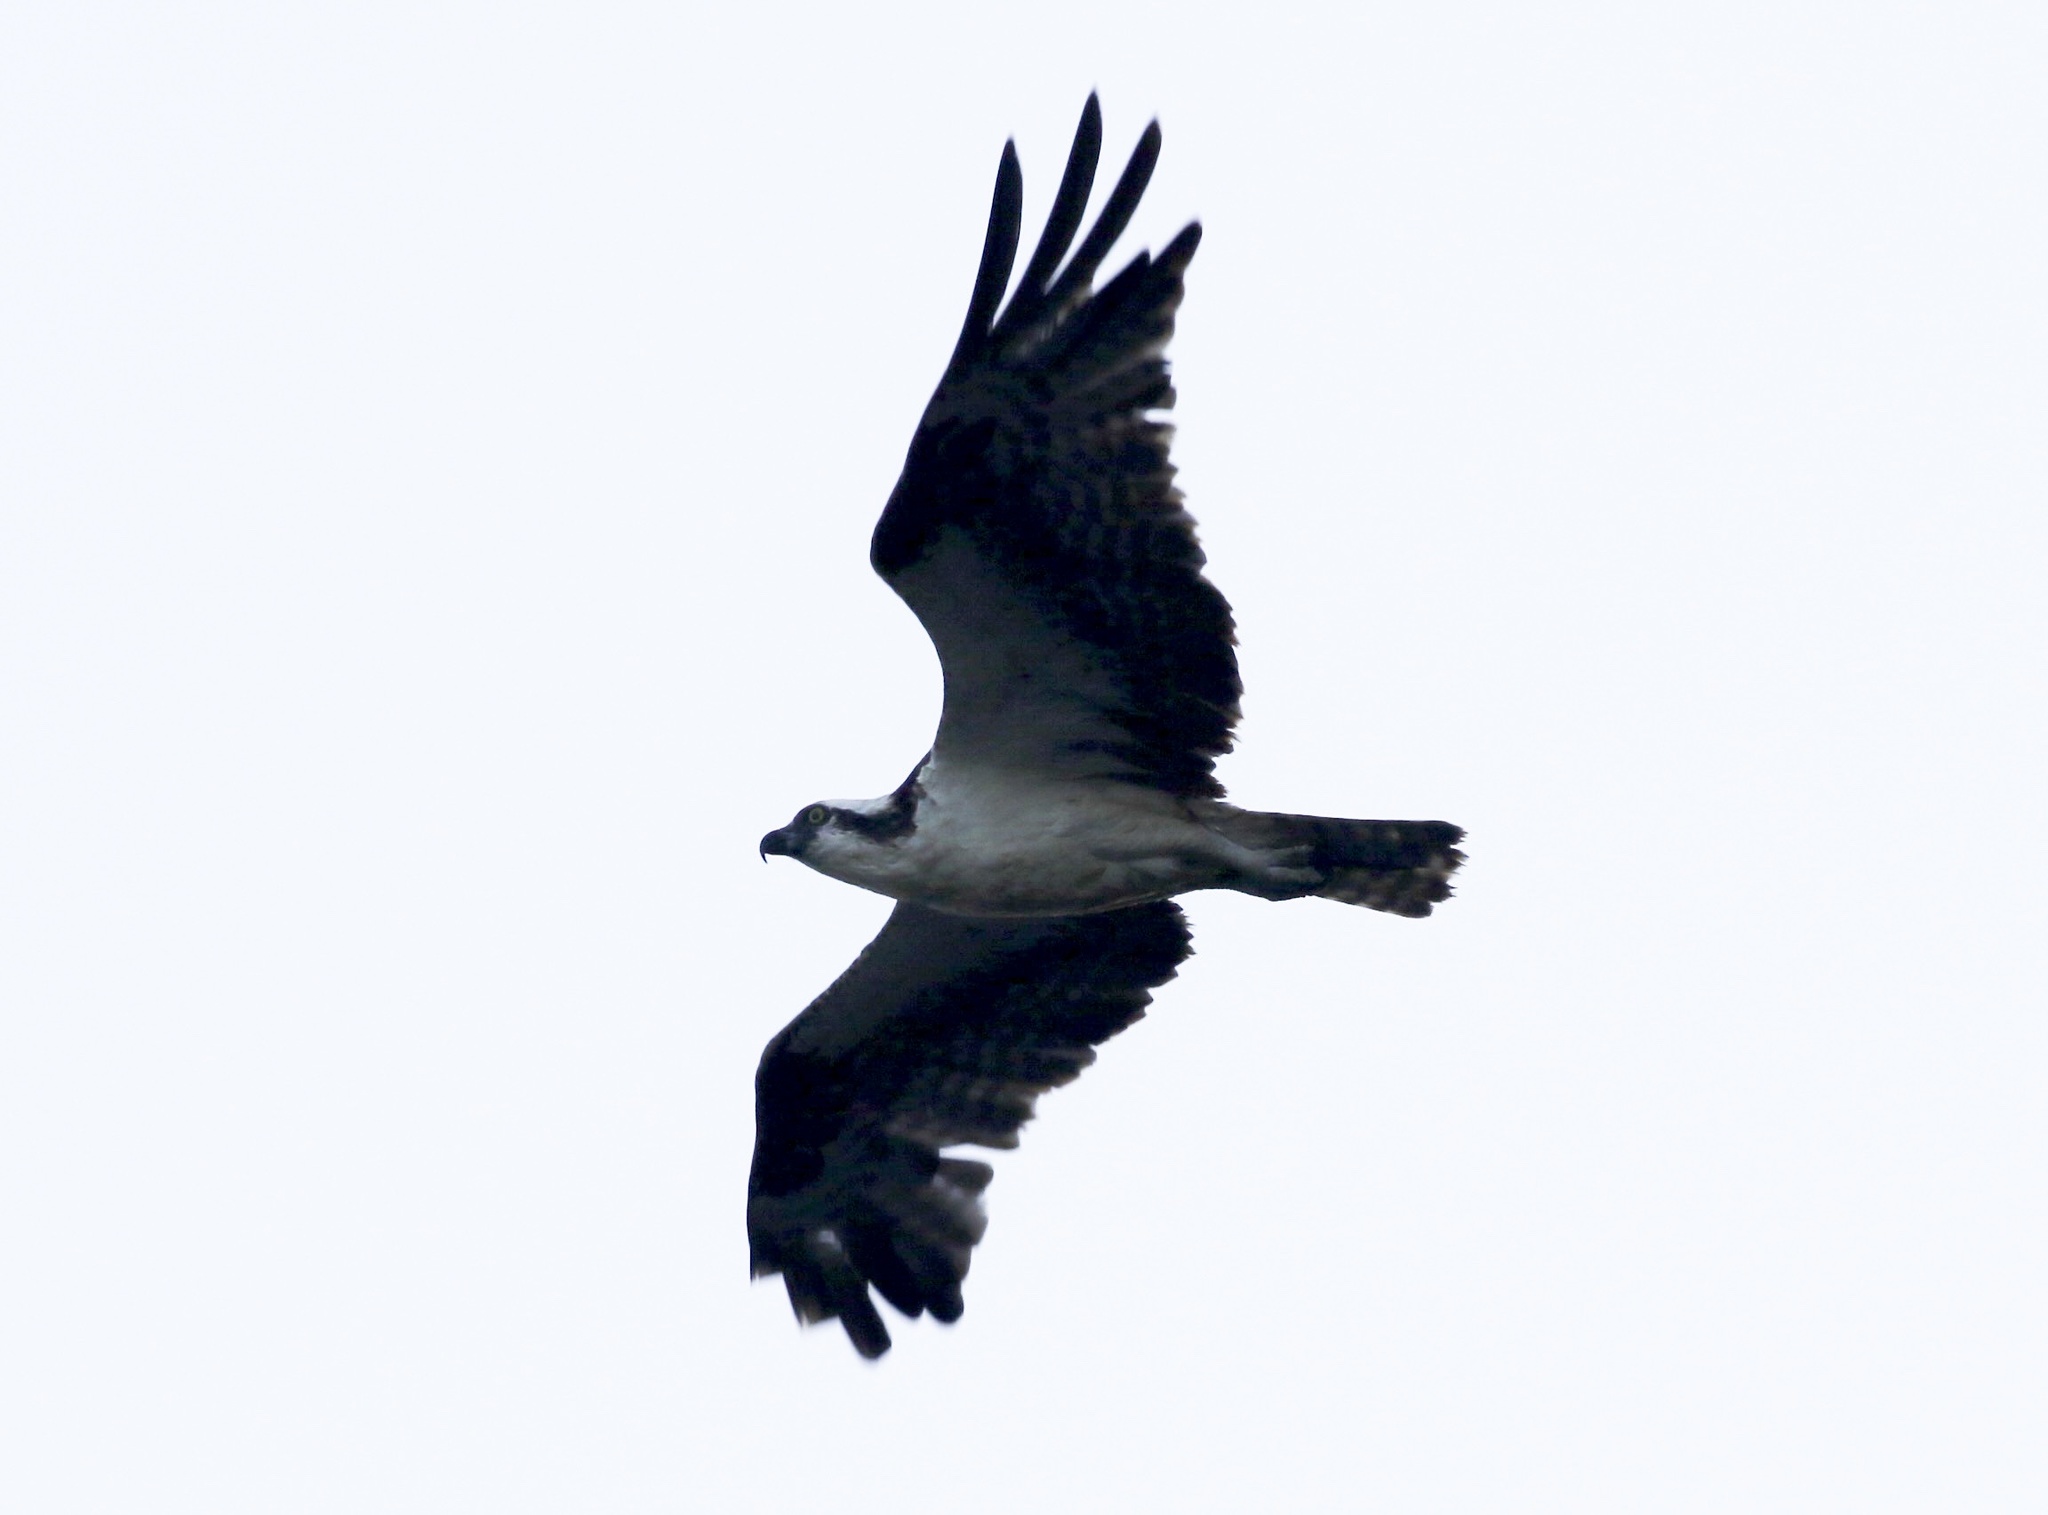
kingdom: Animalia
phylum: Chordata
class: Aves
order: Accipitriformes
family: Pandionidae
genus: Pandion
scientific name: Pandion haliaetus
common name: Osprey
